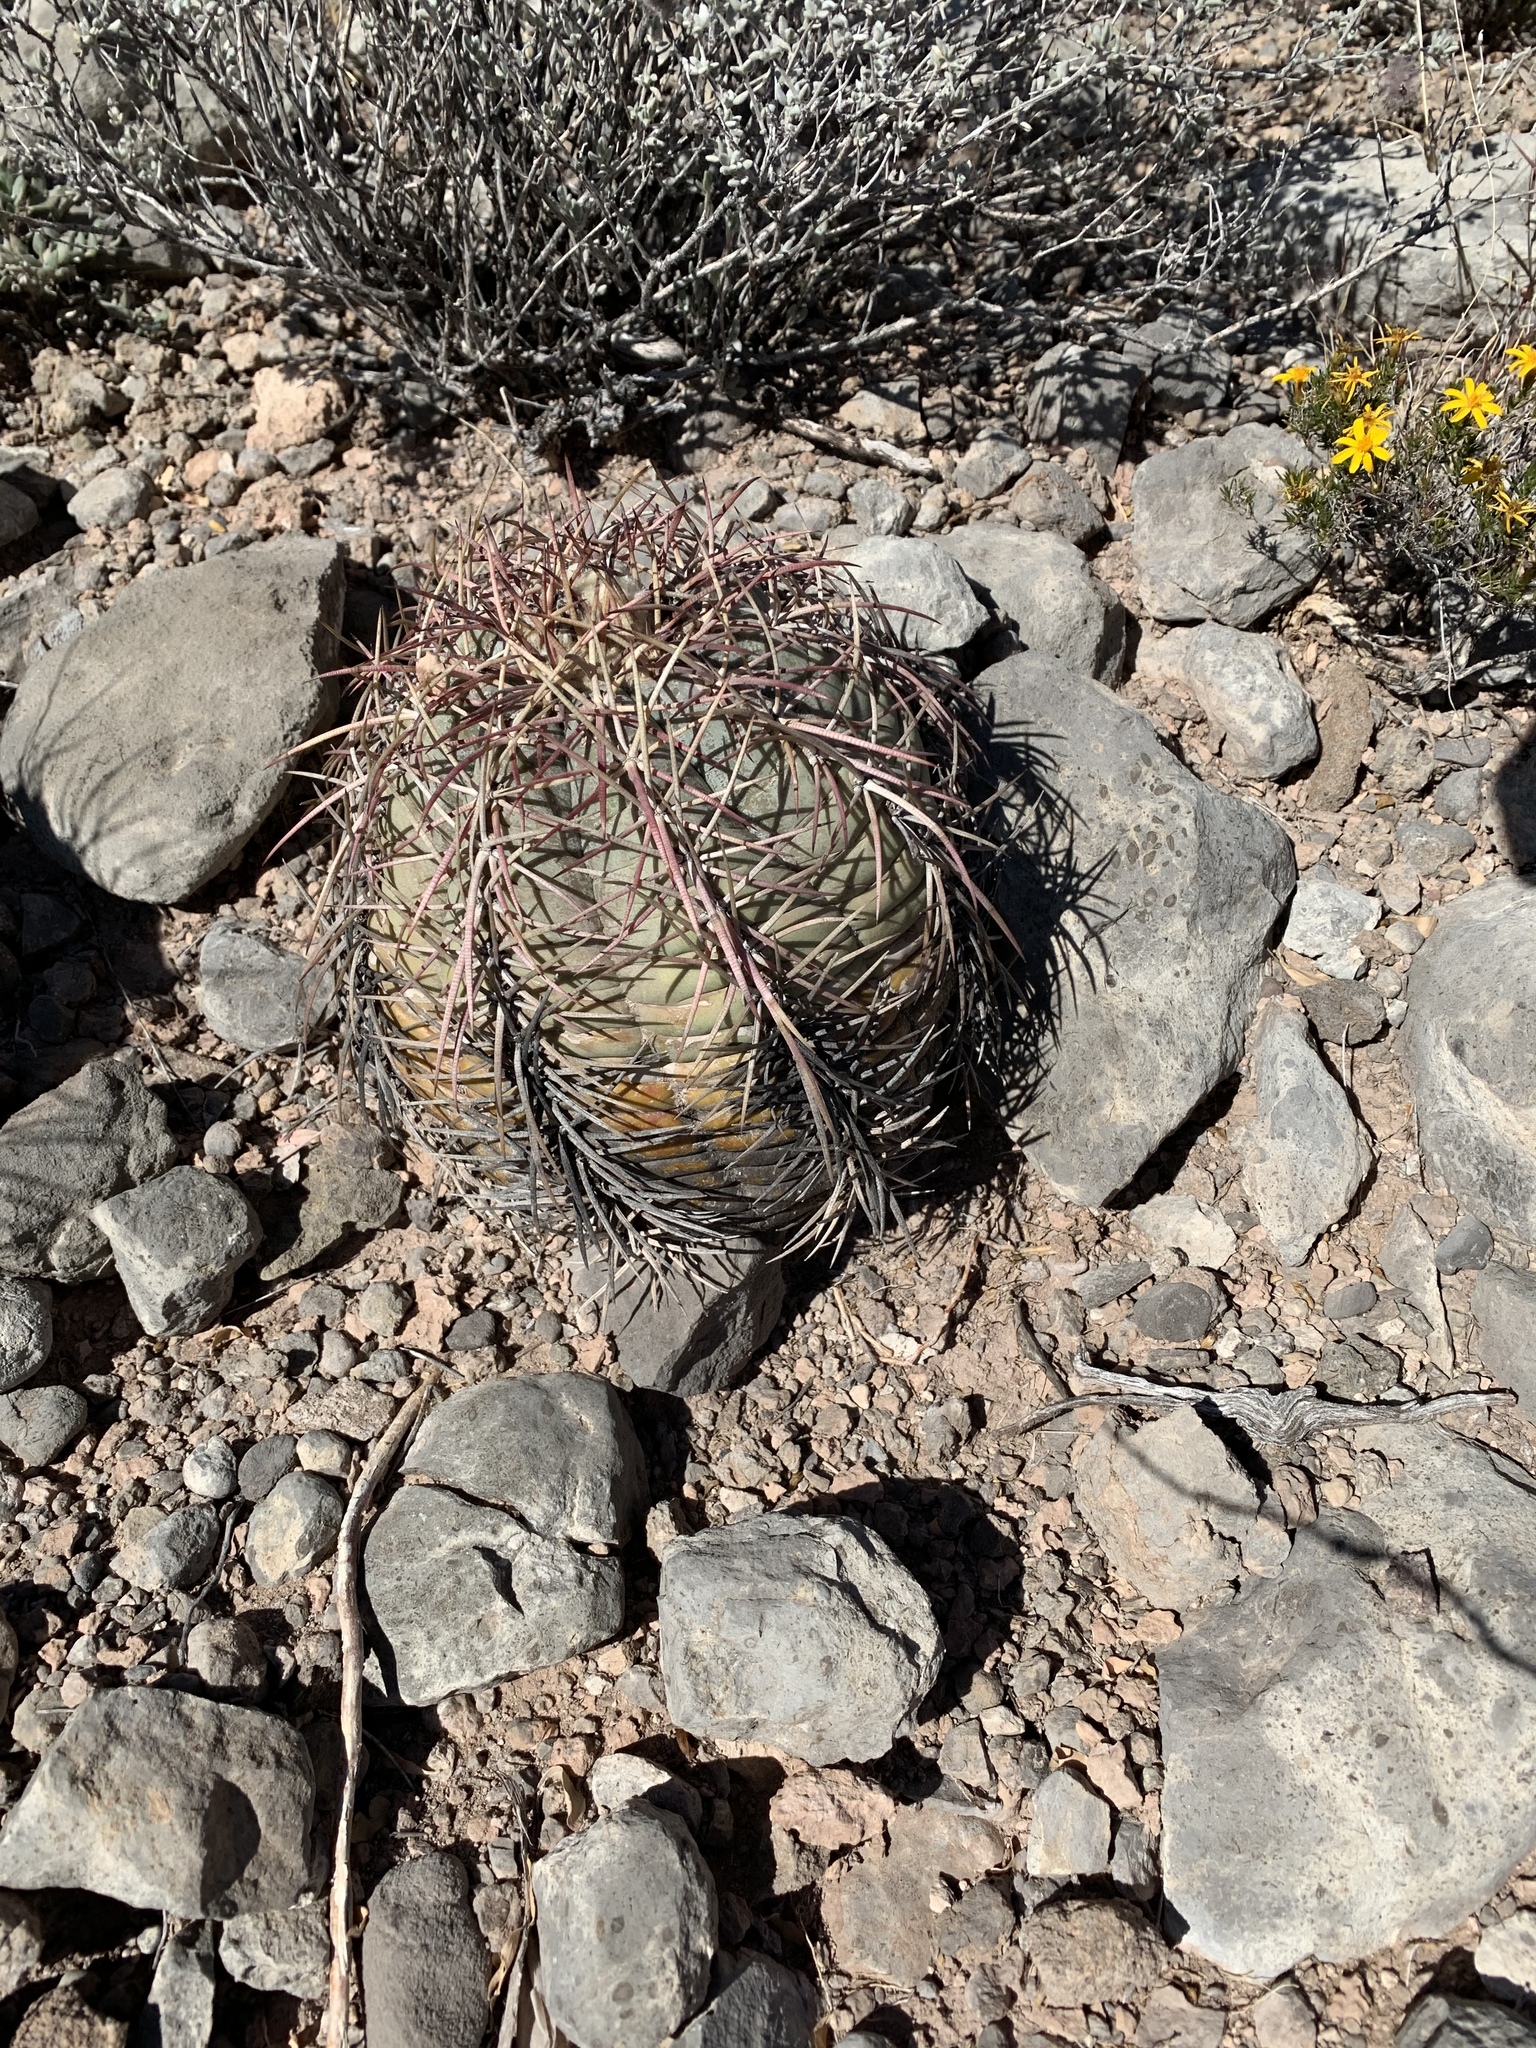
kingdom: Plantae
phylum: Tracheophyta
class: Magnoliopsida
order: Caryophyllales
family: Cactaceae
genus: Echinocactus
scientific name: Echinocactus horizonthalonius
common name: Devilshead
